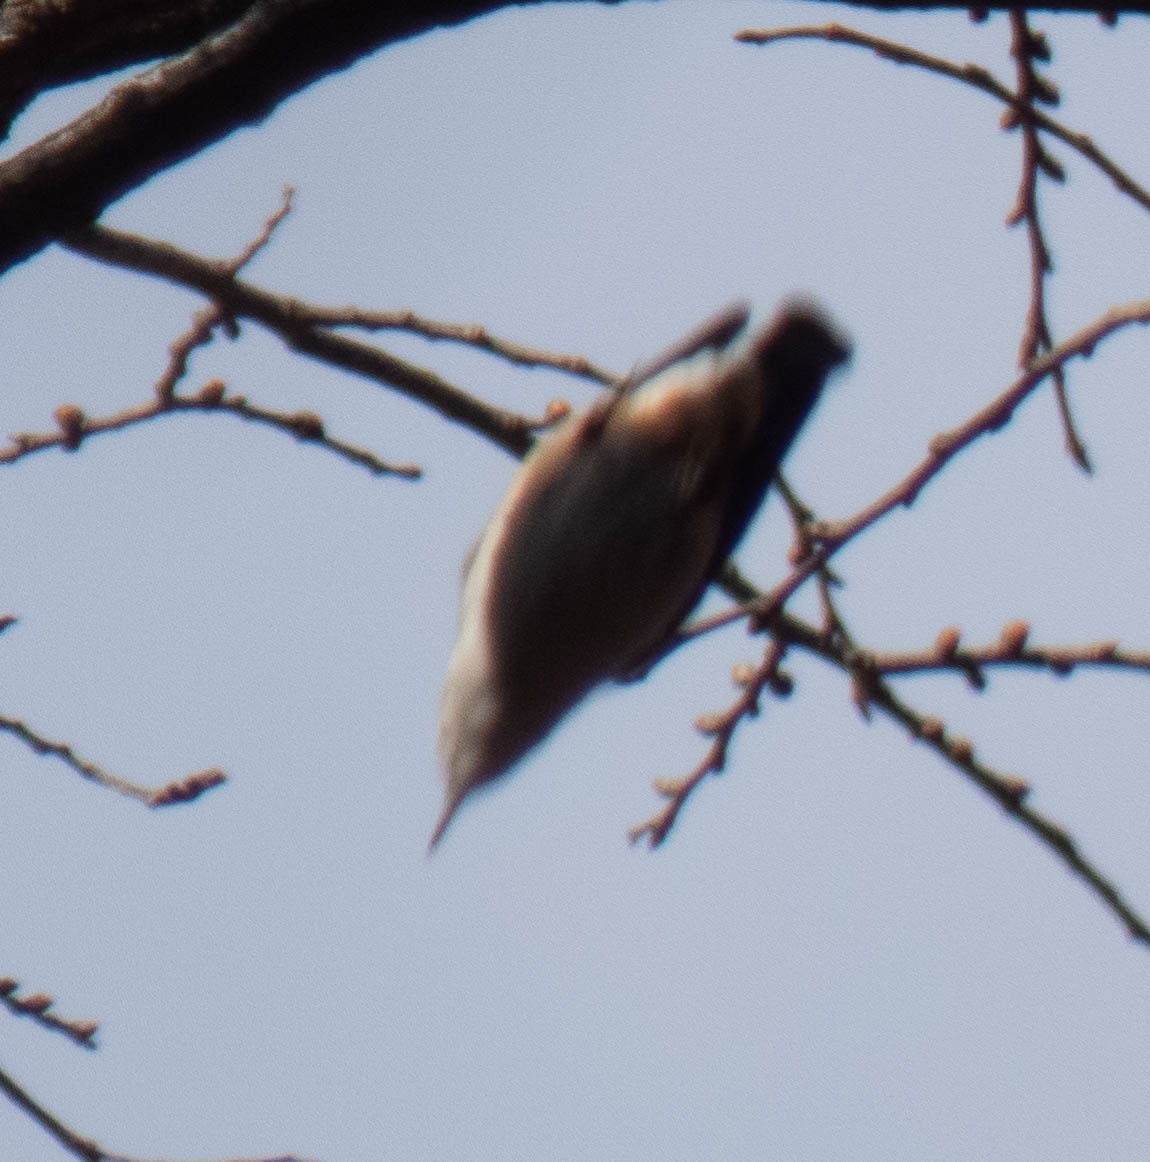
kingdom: Animalia
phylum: Chordata
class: Aves
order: Passeriformes
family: Sittidae
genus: Sitta
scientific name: Sitta carolinensis
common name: White-breasted nuthatch
